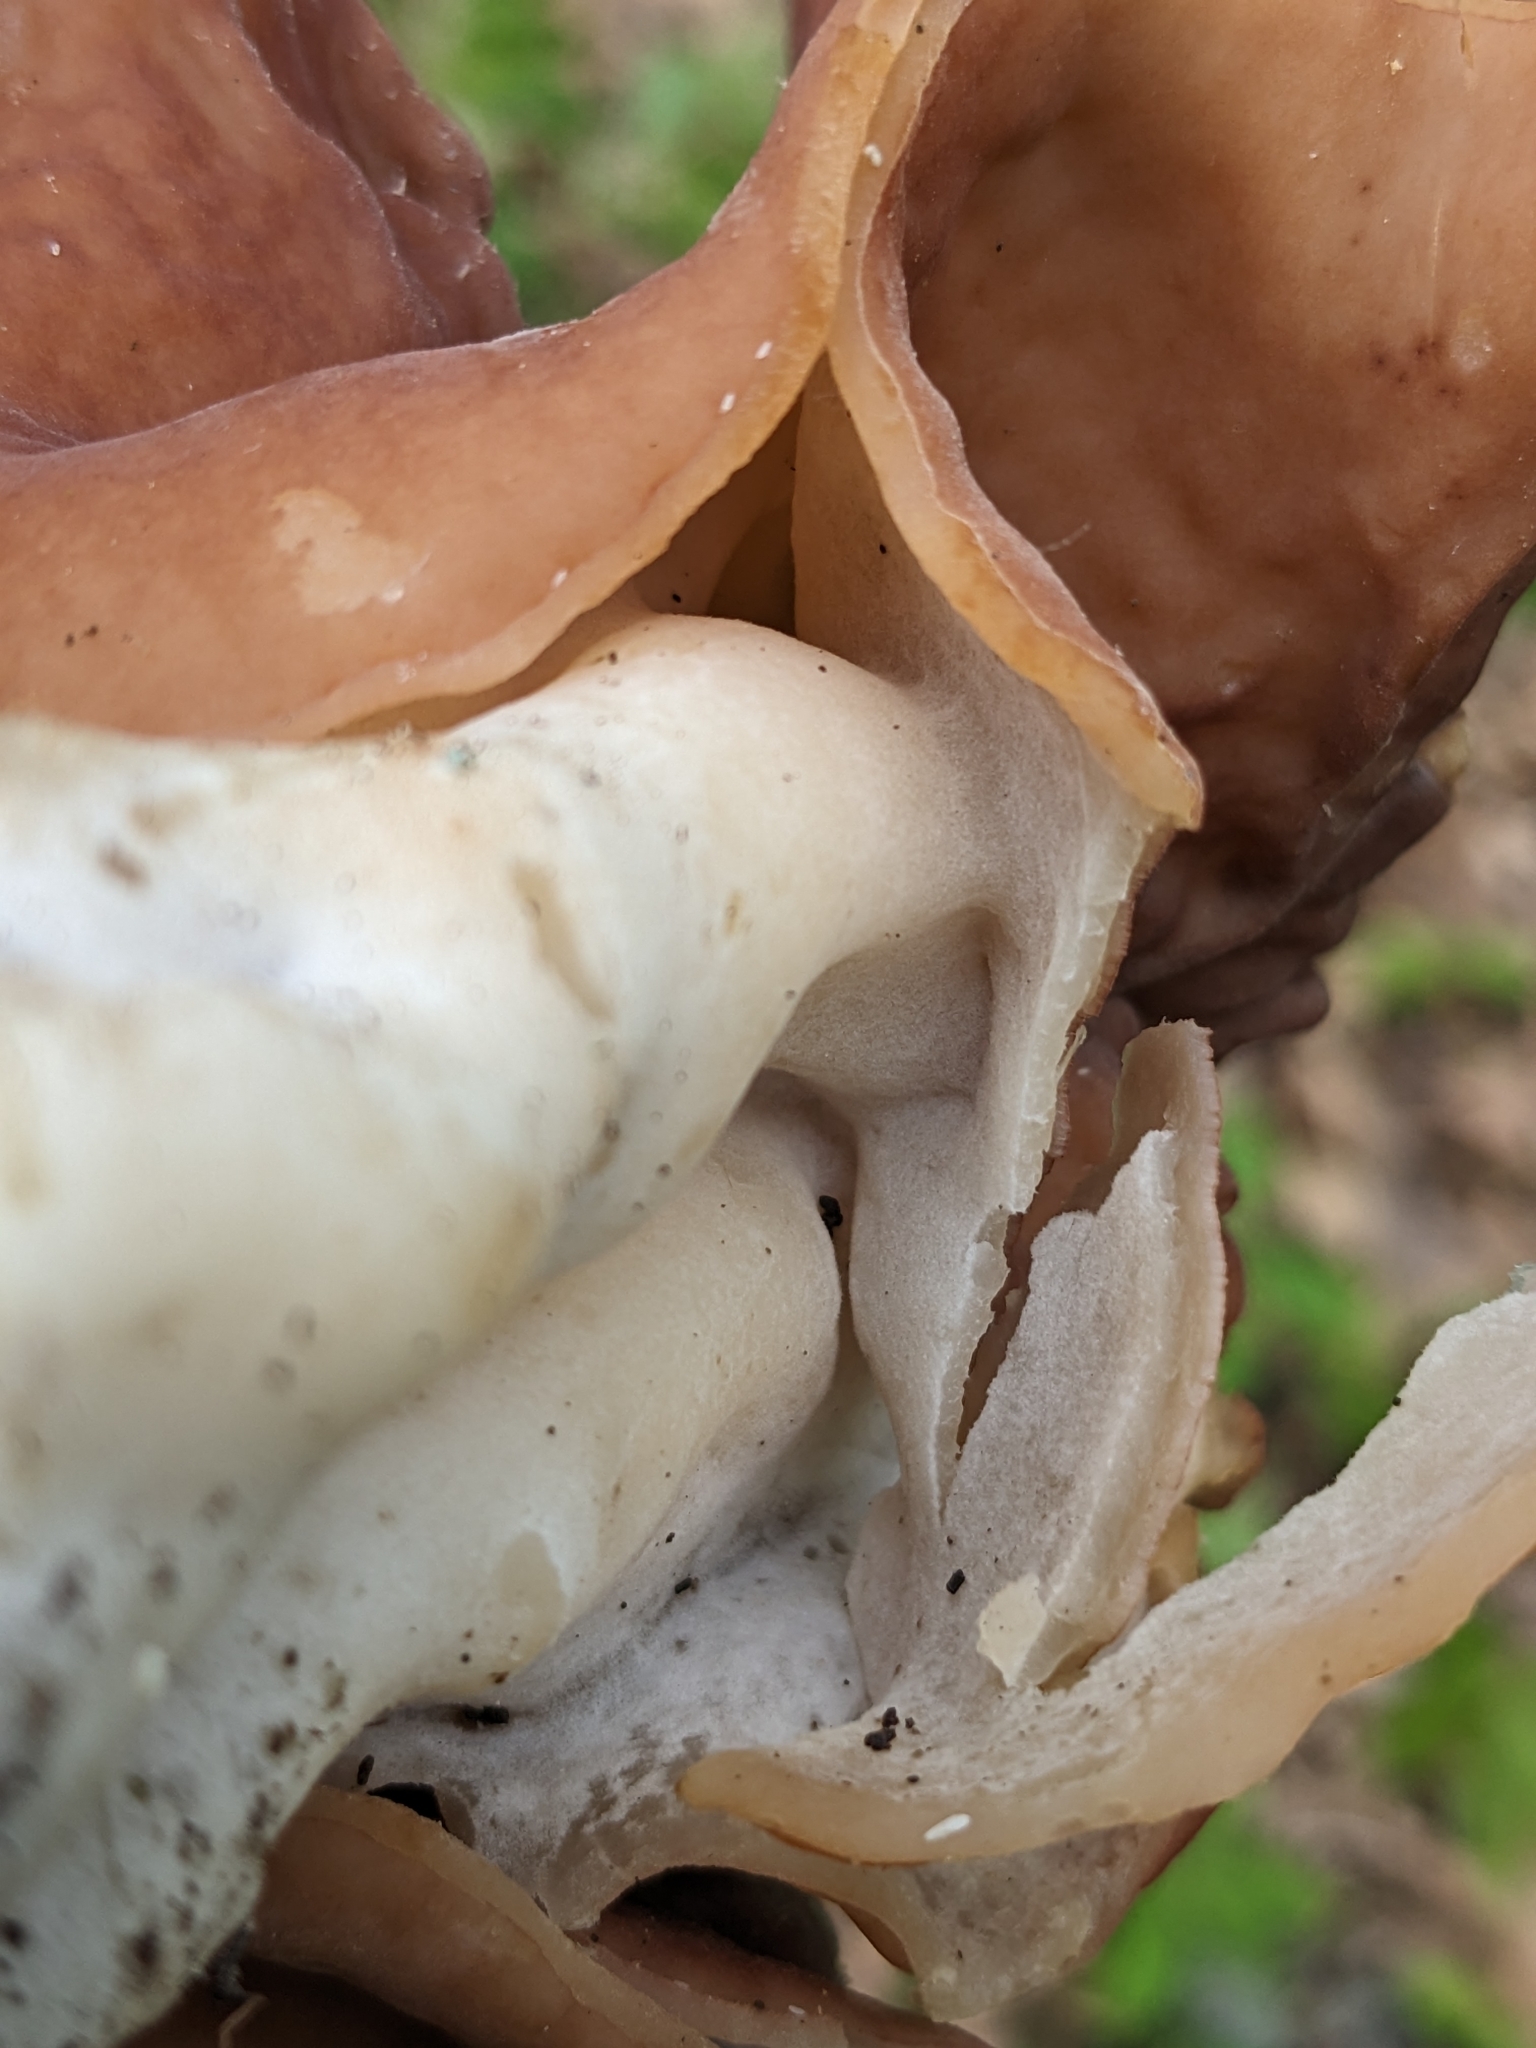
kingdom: Fungi
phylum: Ascomycota
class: Pezizomycetes
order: Pezizales
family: Discinaceae
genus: Discina
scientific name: Discina brunnea
